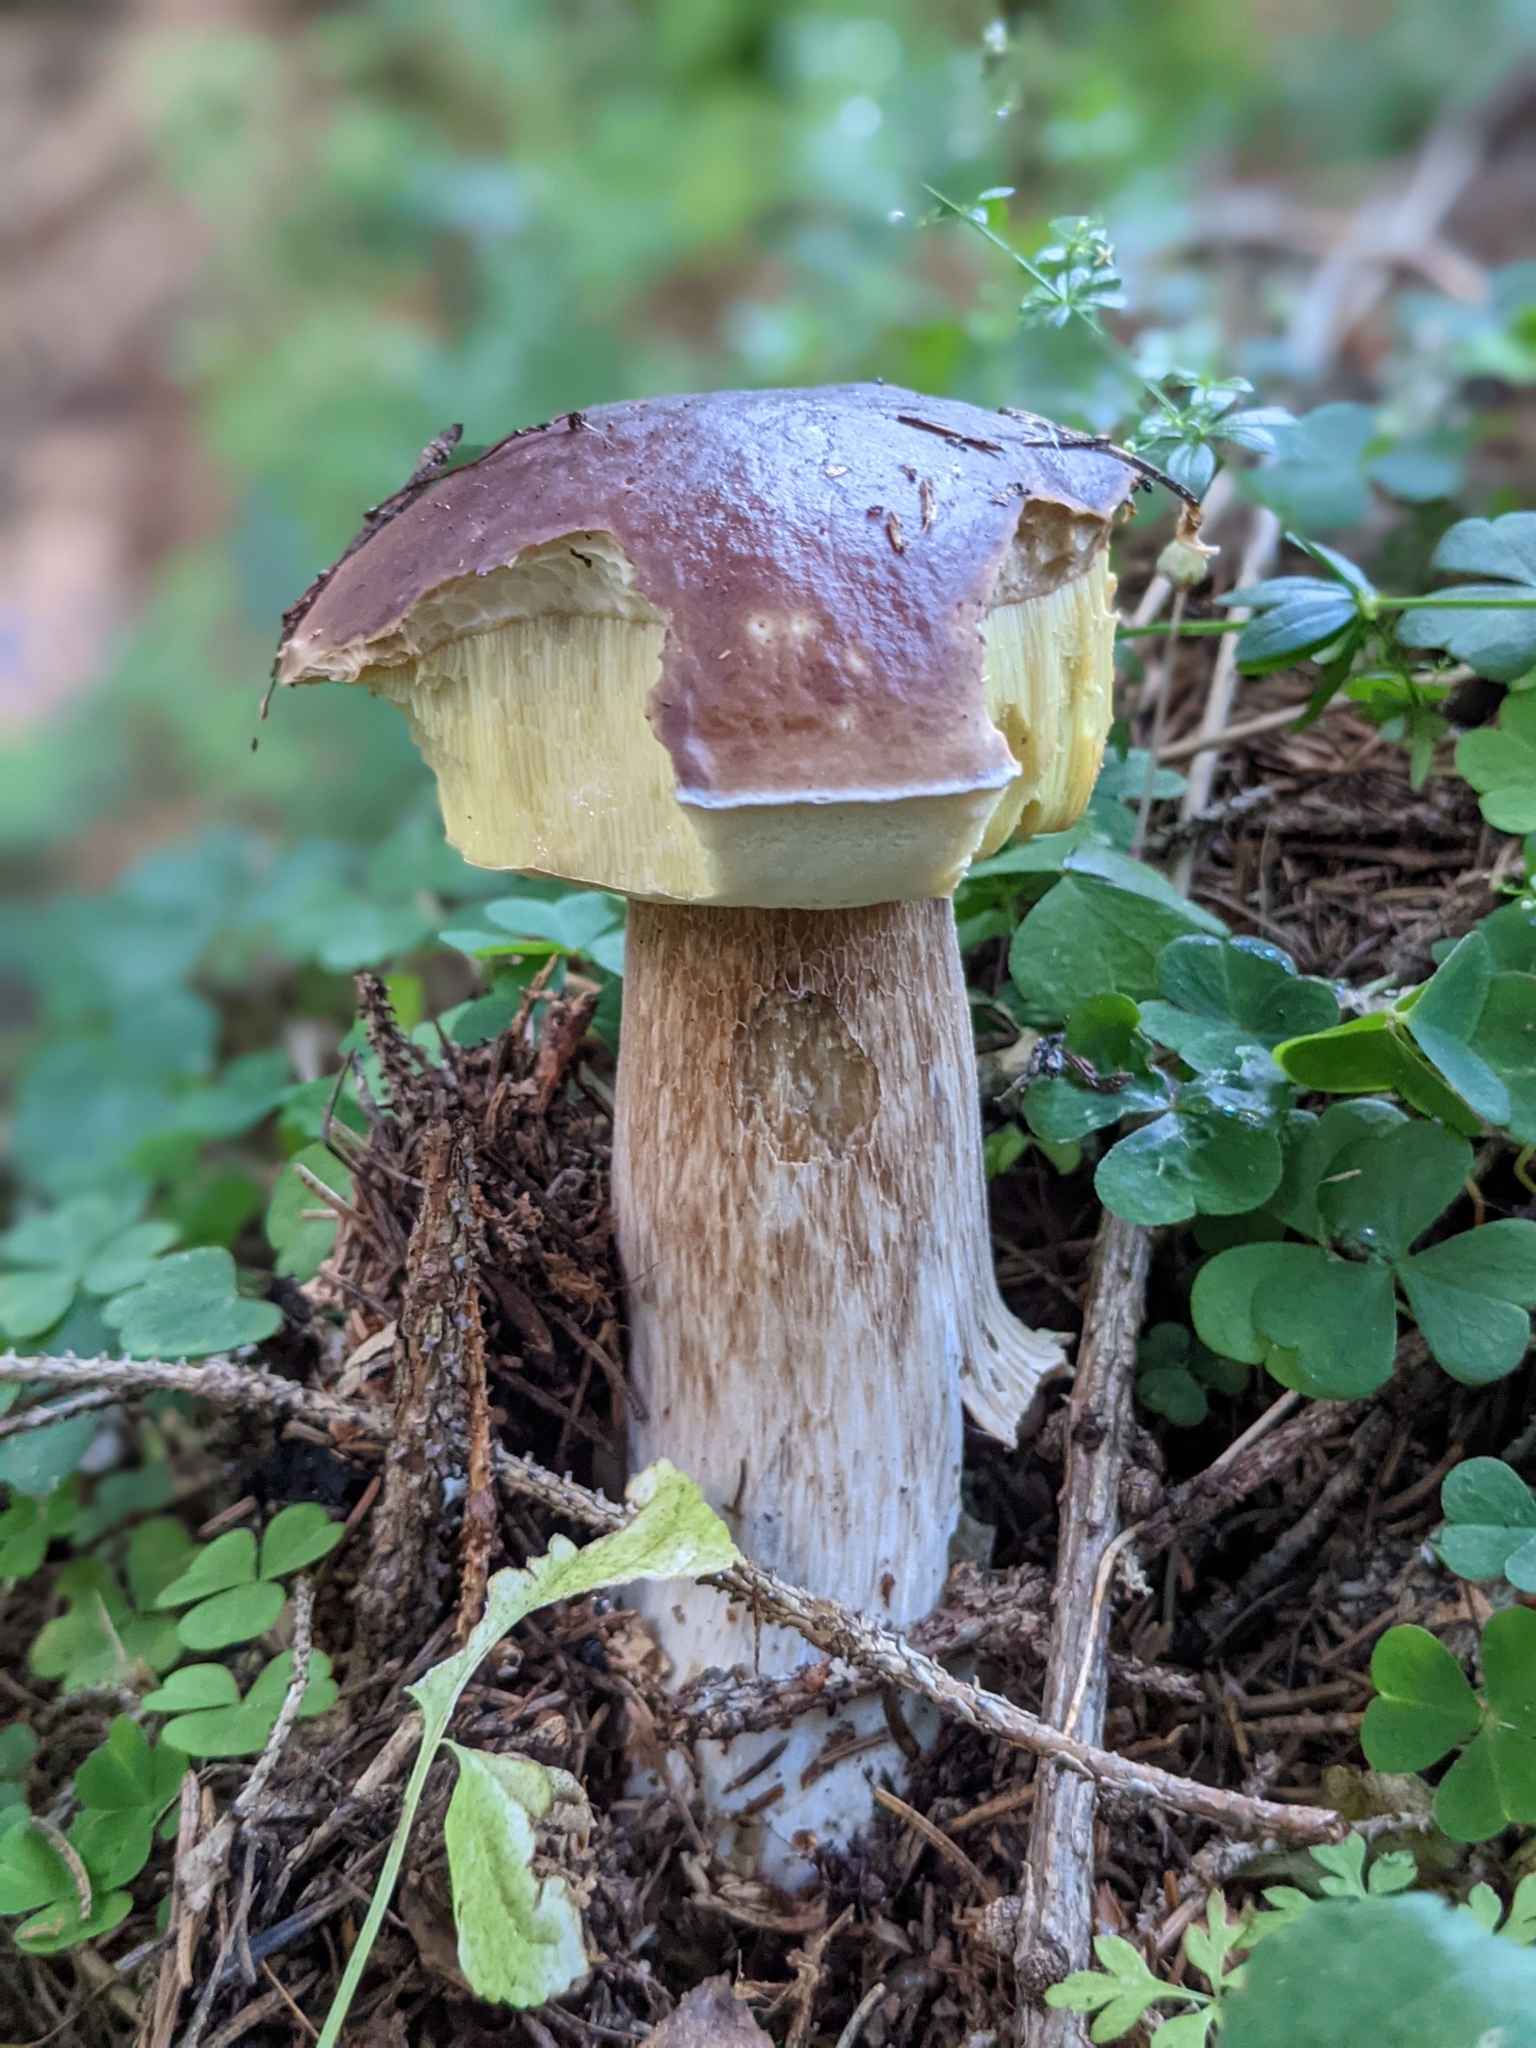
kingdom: Fungi
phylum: Basidiomycota
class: Agaricomycetes
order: Boletales
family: Boletaceae
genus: Boletus
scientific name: Boletus edulis
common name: Cep
